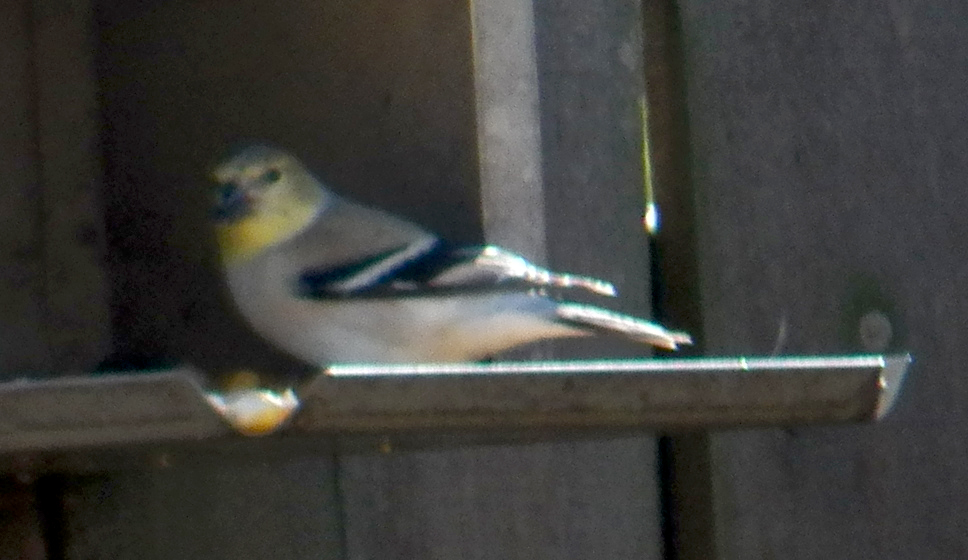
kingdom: Animalia
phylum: Chordata
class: Aves
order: Passeriformes
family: Fringillidae
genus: Spinus
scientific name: Spinus tristis
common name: American goldfinch
